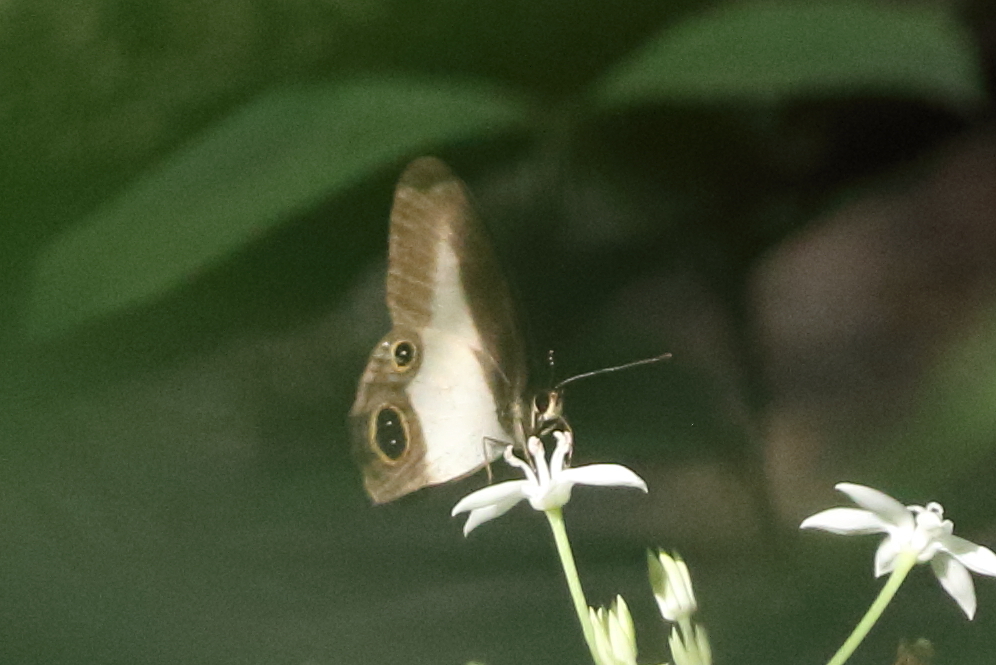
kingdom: Animalia
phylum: Arthropoda
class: Insecta
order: Lepidoptera
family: Nymphalidae
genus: Hypocysta
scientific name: Hypocysta angustata
